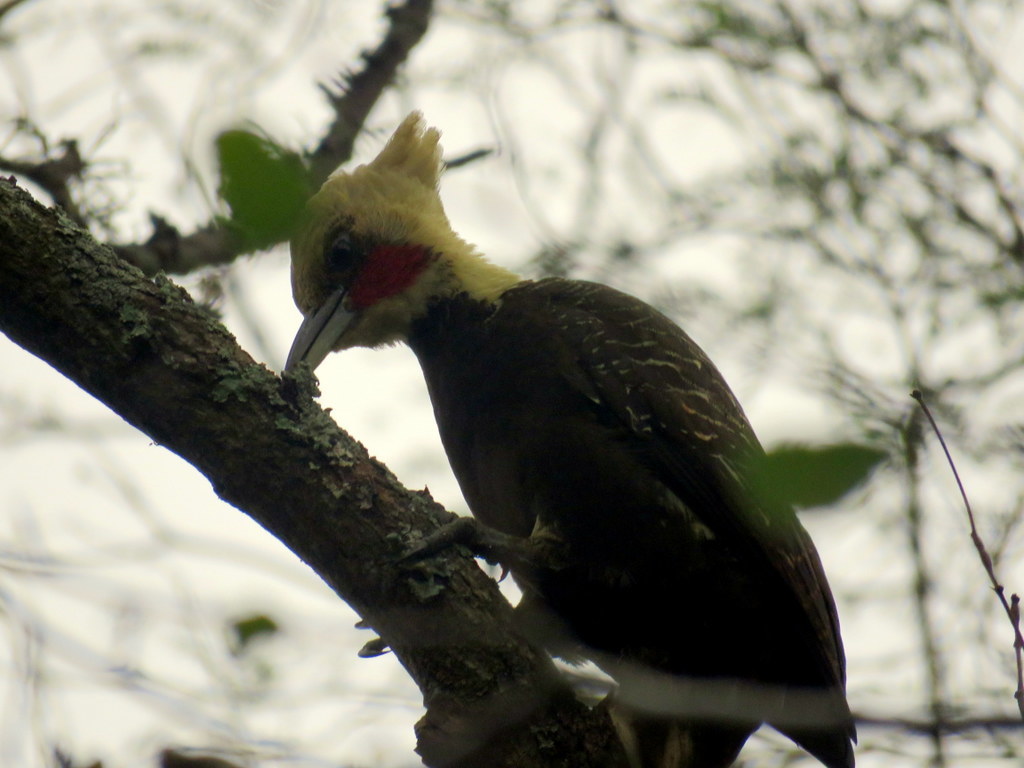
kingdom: Animalia
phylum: Chordata
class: Aves
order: Piciformes
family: Picidae
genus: Celeus
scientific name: Celeus lugubris
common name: Pale-crested woodpecker
